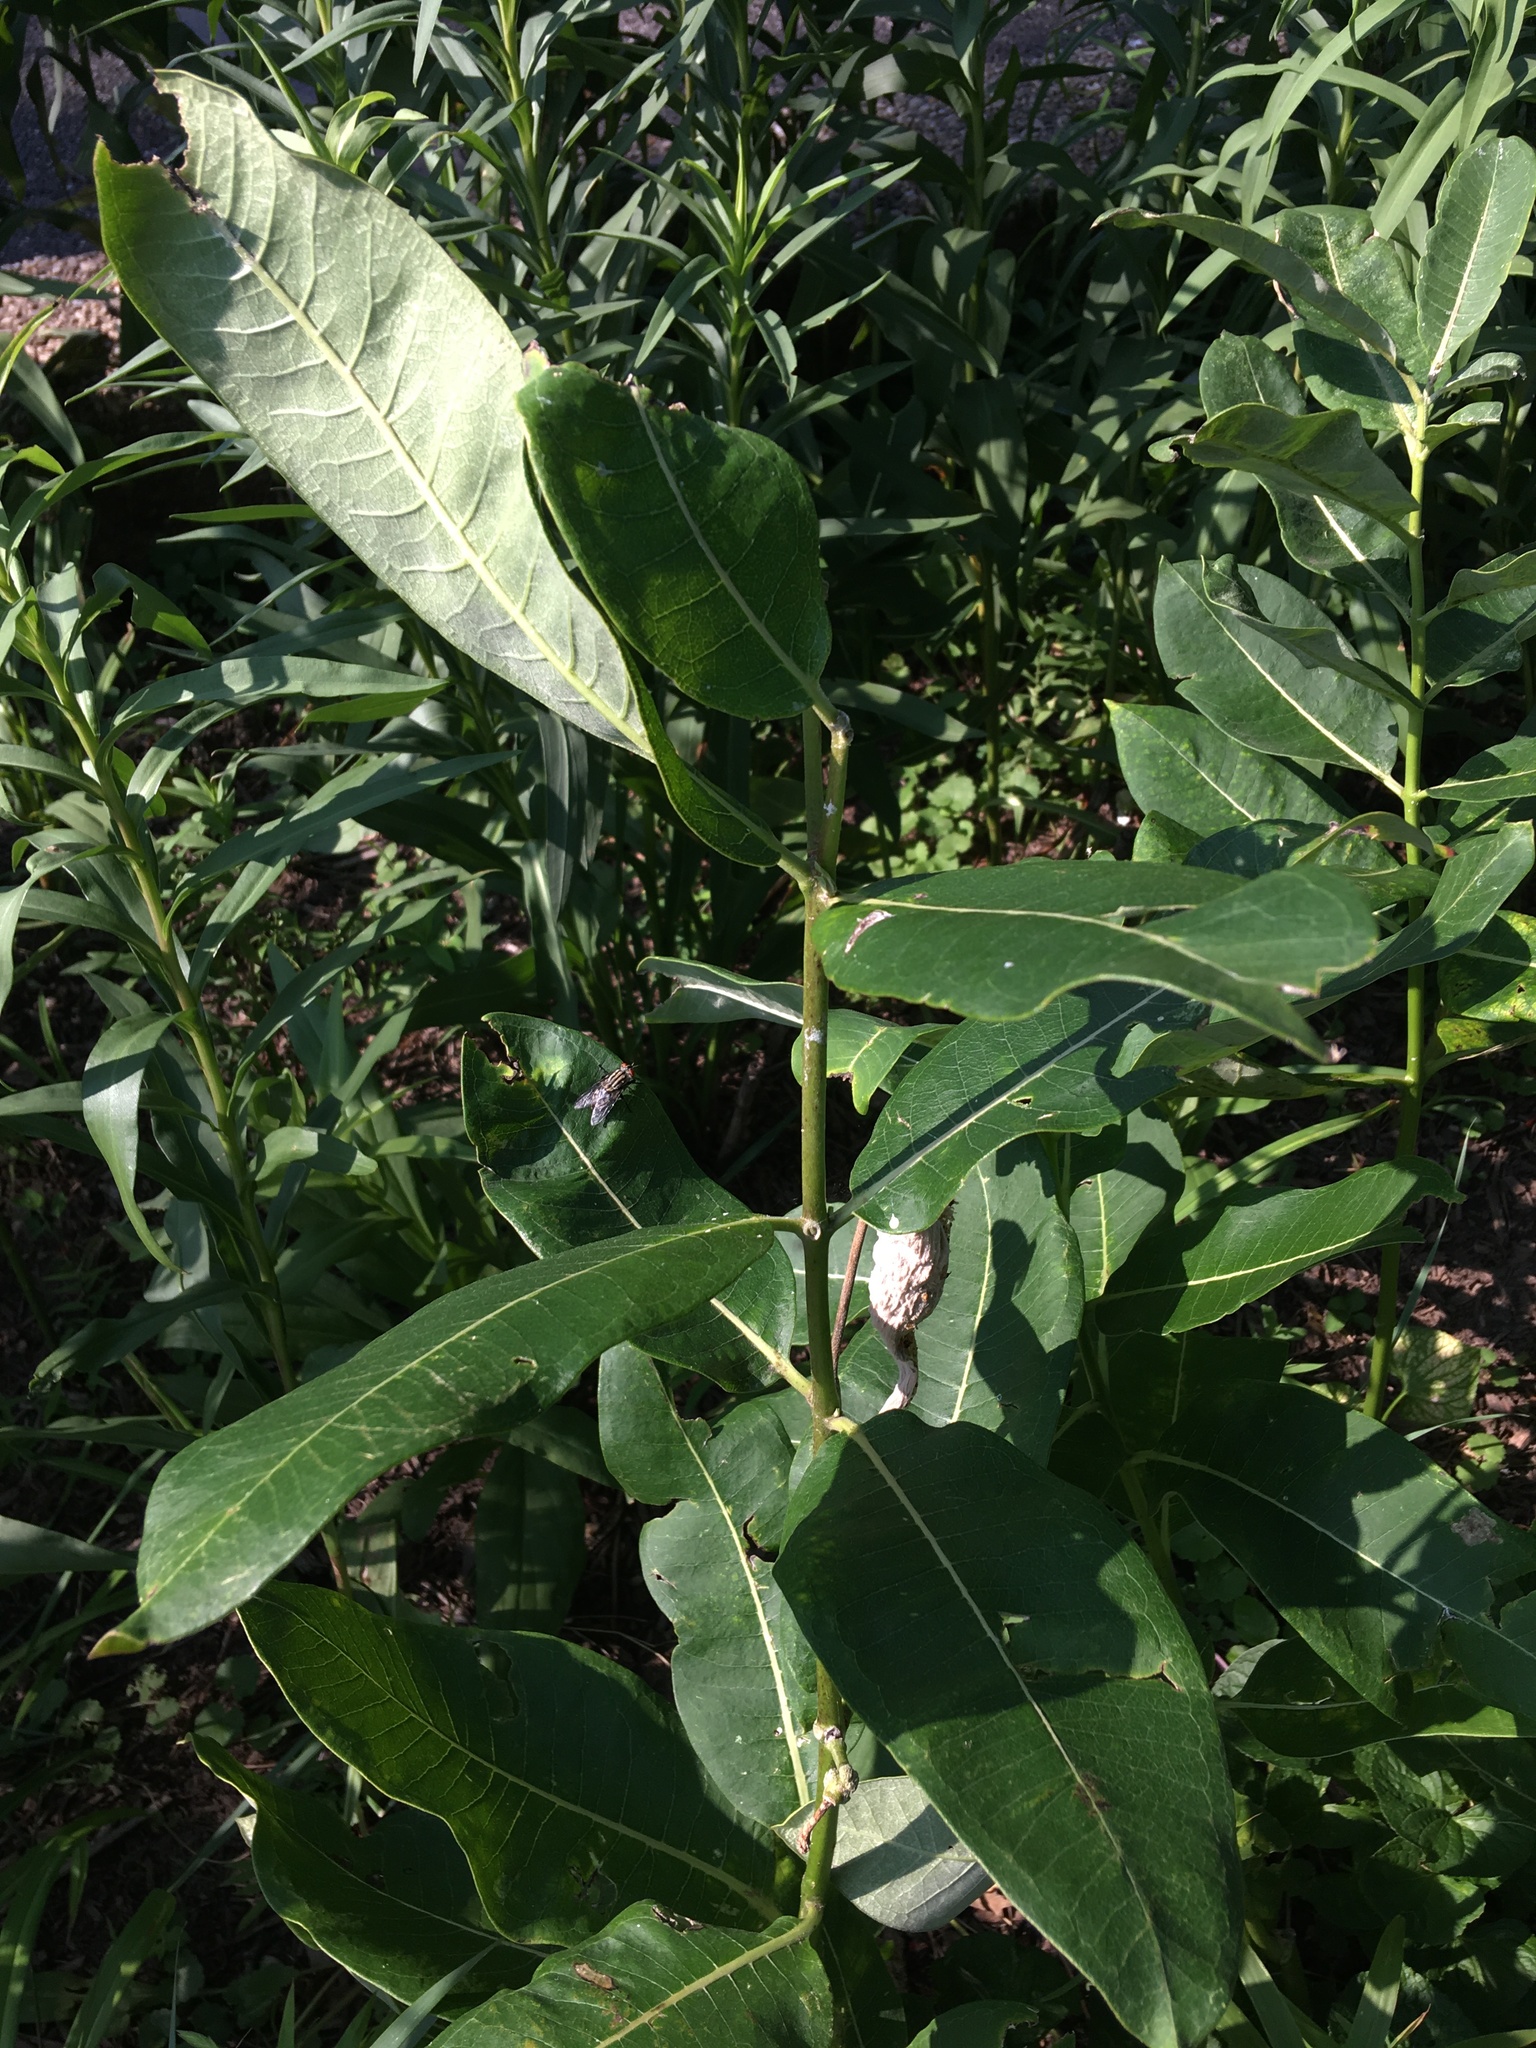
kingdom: Plantae
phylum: Tracheophyta
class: Magnoliopsida
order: Gentianales
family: Apocynaceae
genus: Asclepias
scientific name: Asclepias syriaca
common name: Common milkweed
